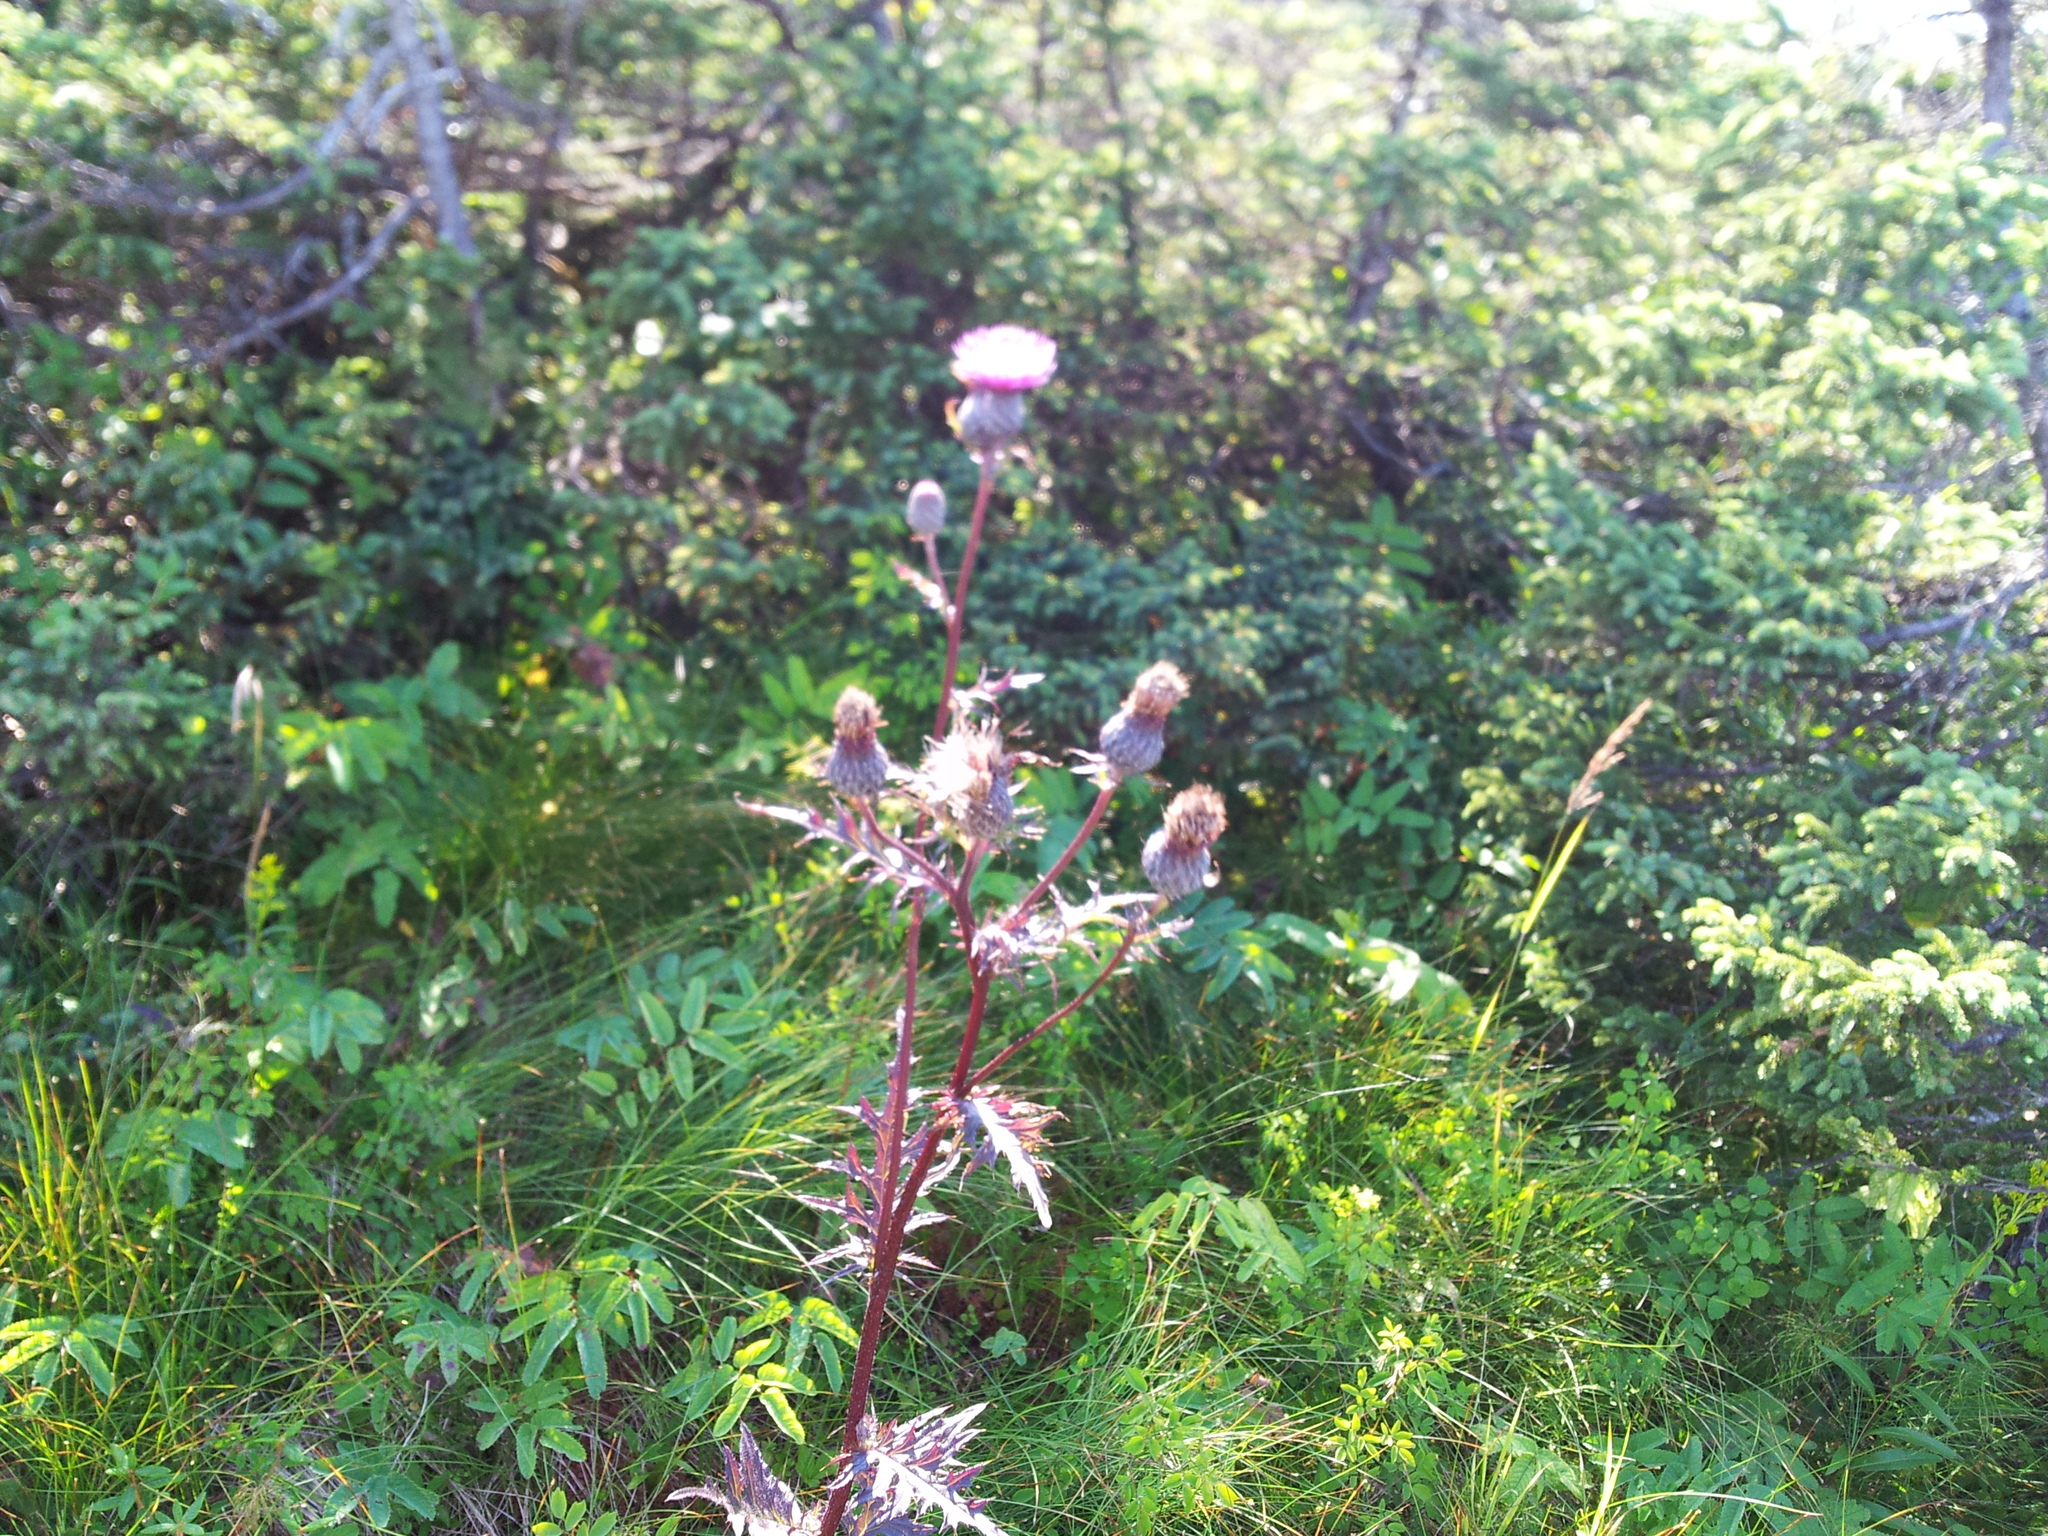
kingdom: Plantae
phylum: Tracheophyta
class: Magnoliopsida
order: Asterales
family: Asteraceae
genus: Cirsium
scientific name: Cirsium muticum
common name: Dunce-nettle
